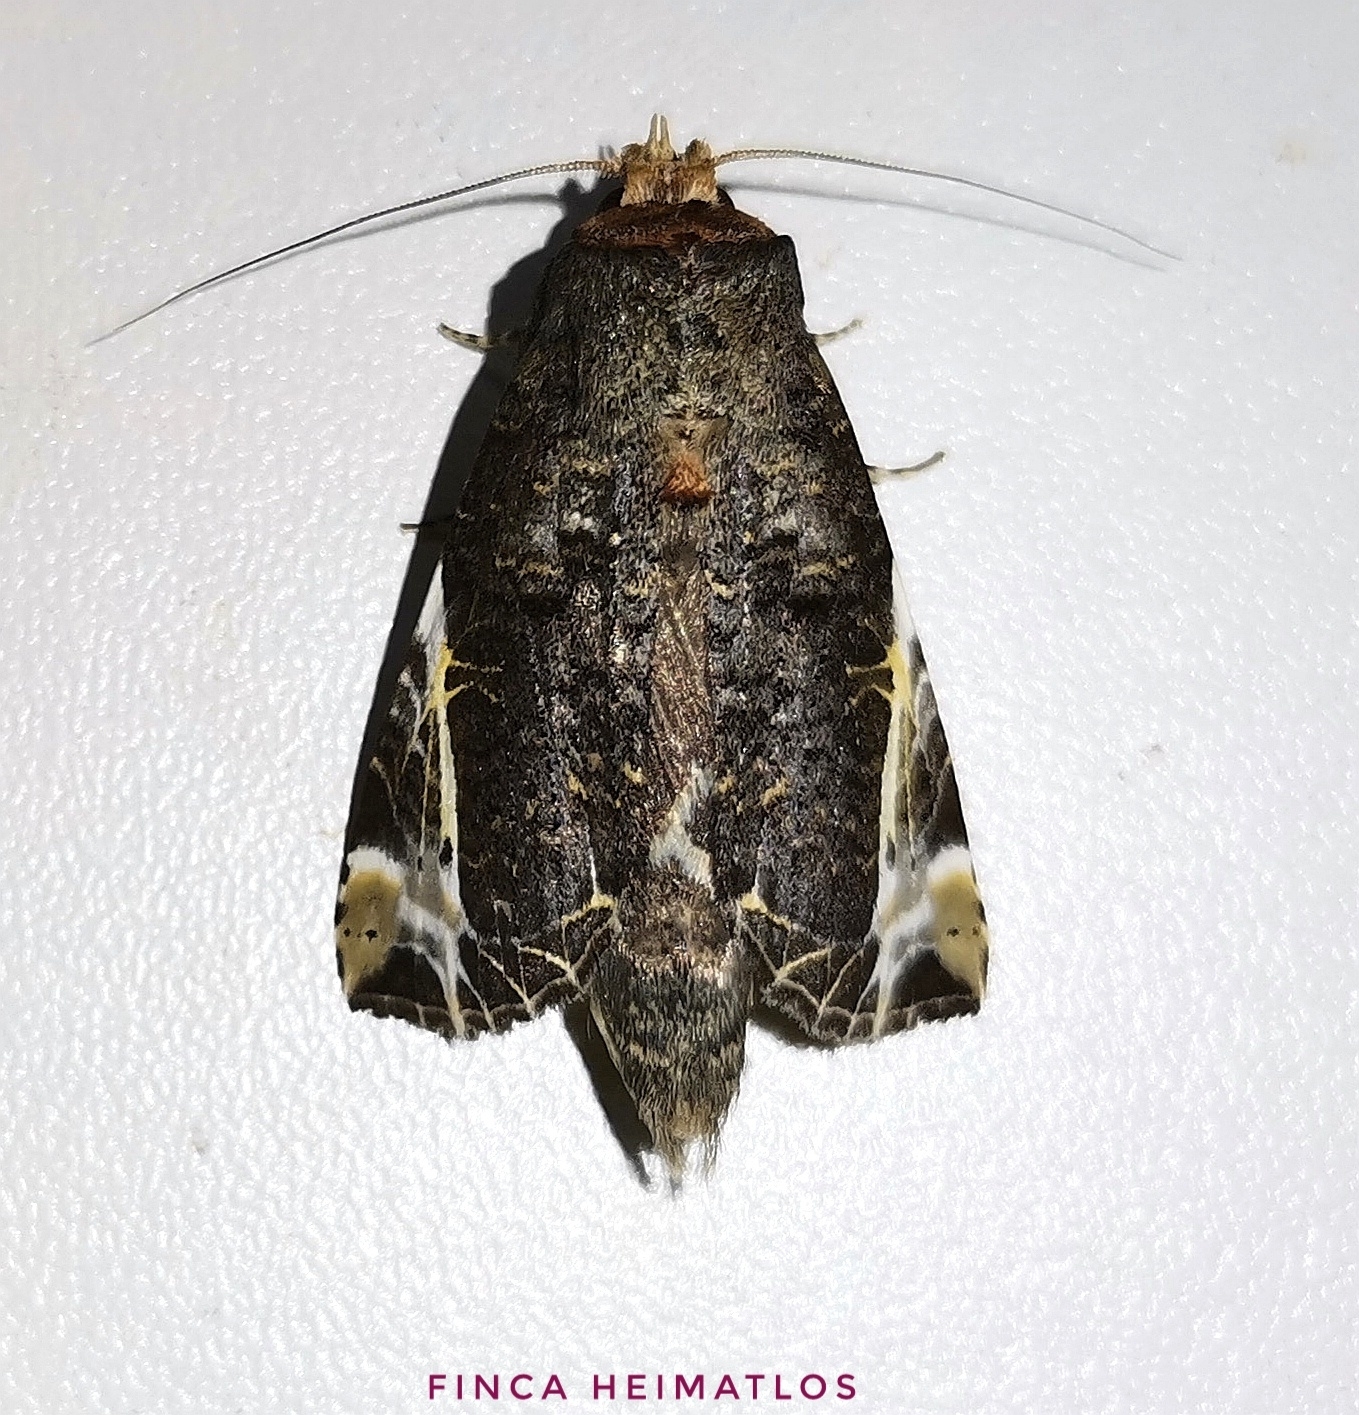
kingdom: Animalia
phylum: Arthropoda
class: Insecta
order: Lepidoptera
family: Notodontidae
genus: Calledema
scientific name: Calledema marmorea
